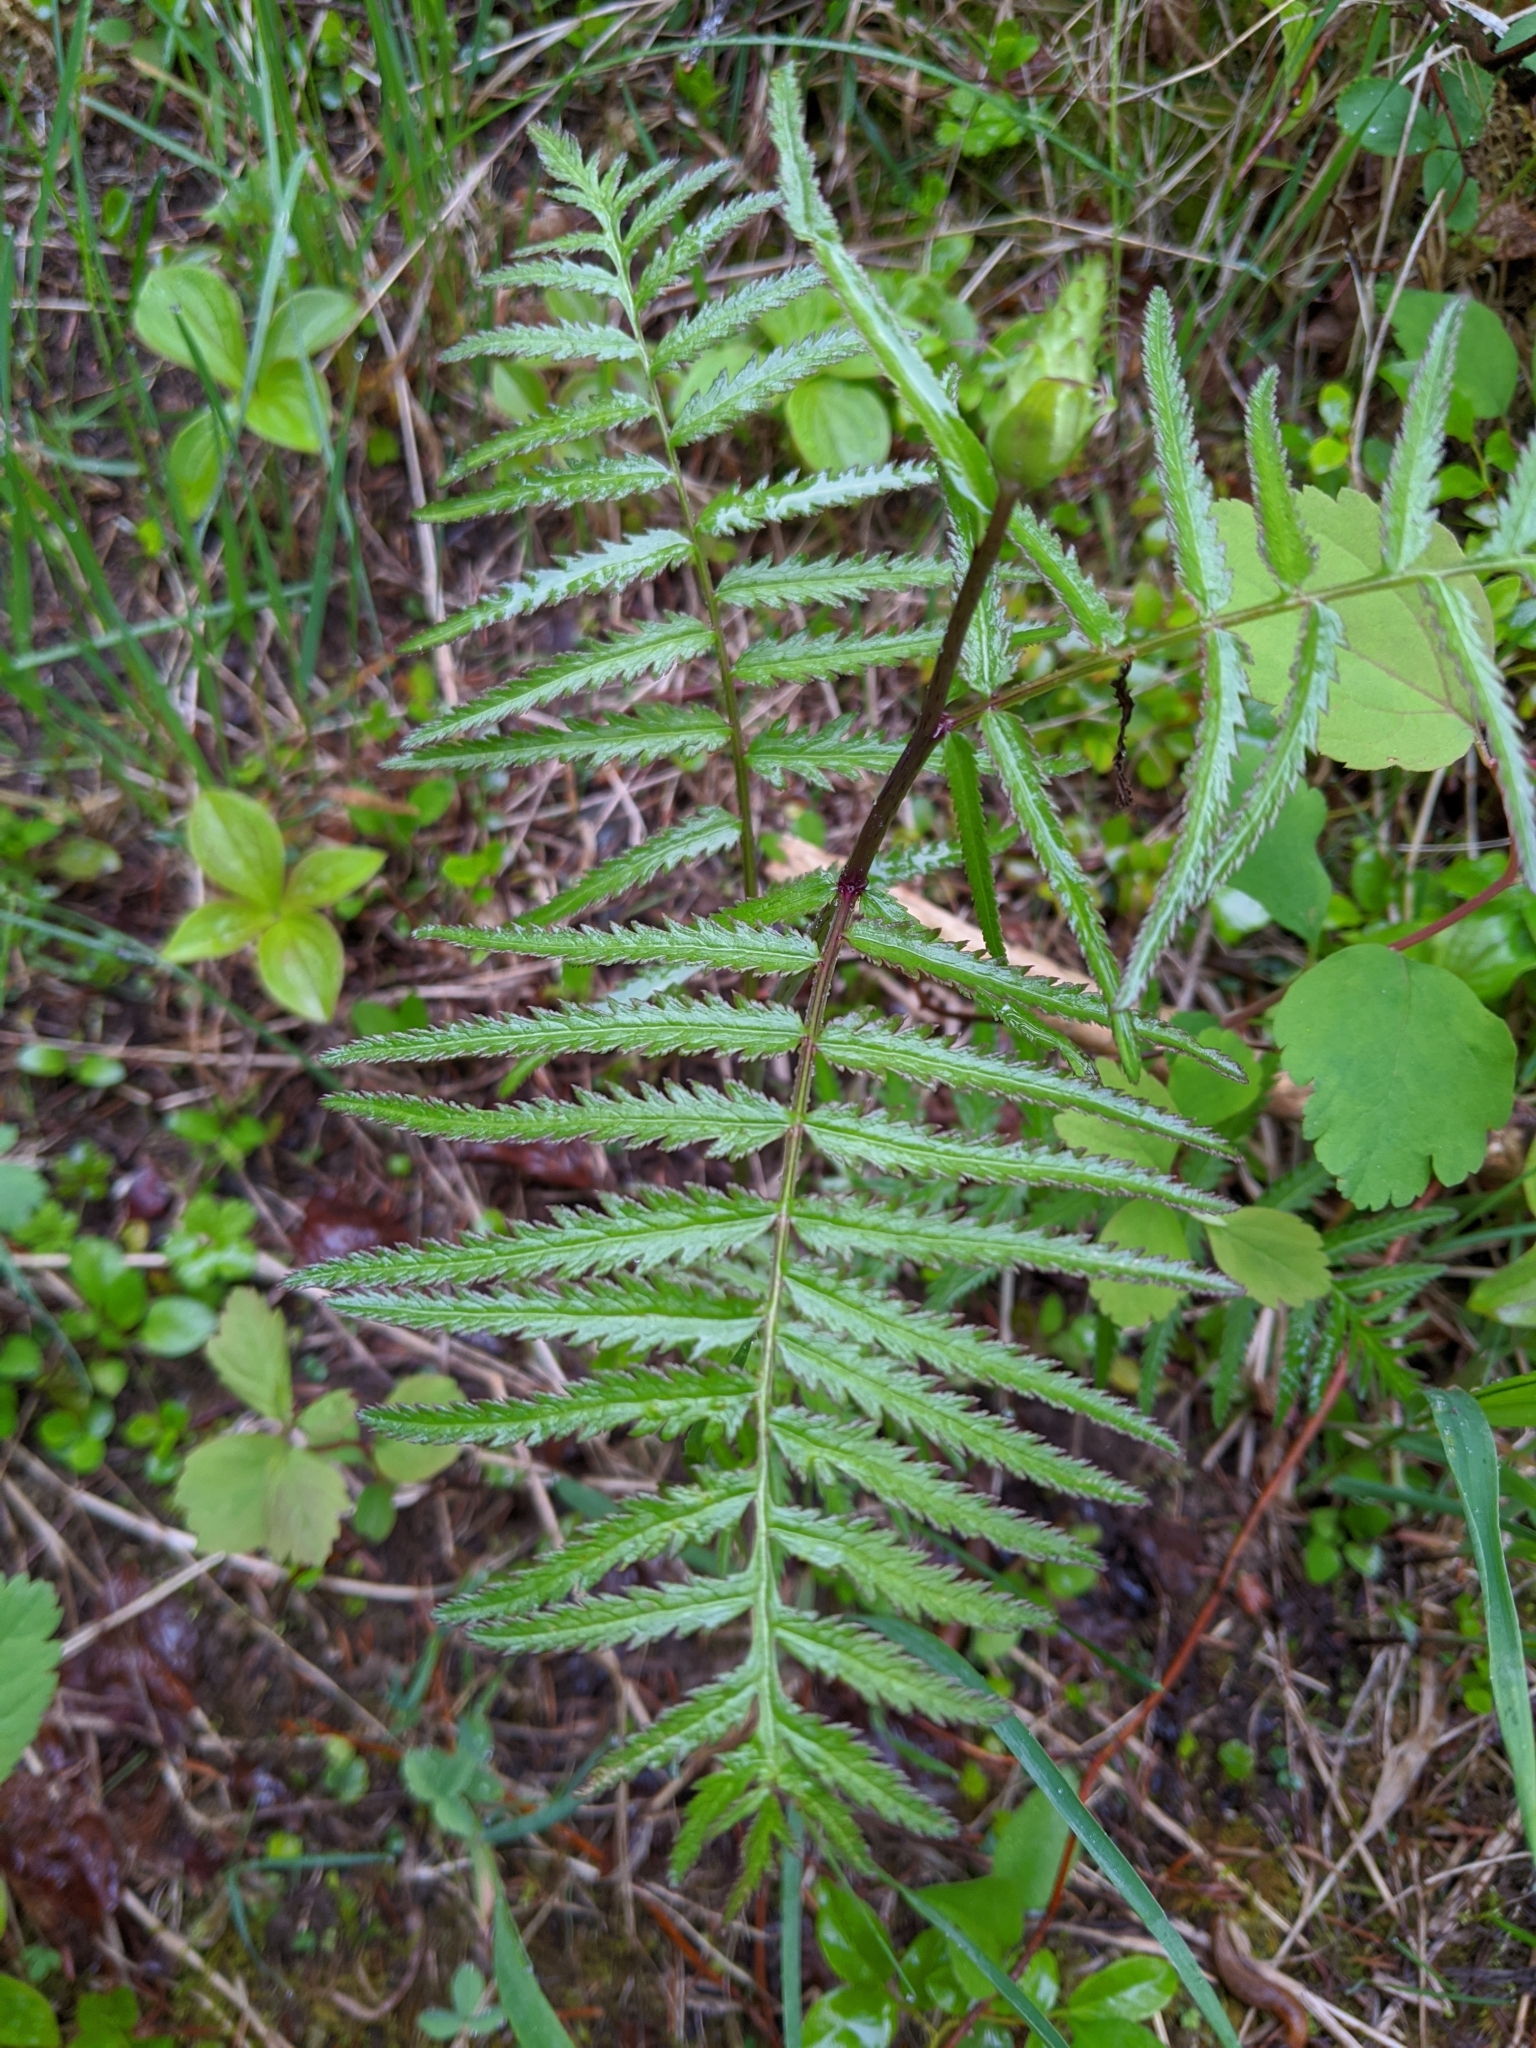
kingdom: Plantae
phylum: Tracheophyta
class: Magnoliopsida
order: Lamiales
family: Orobanchaceae
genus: Pedicularis
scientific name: Pedicularis bracteosa
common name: Bracted lousewort
